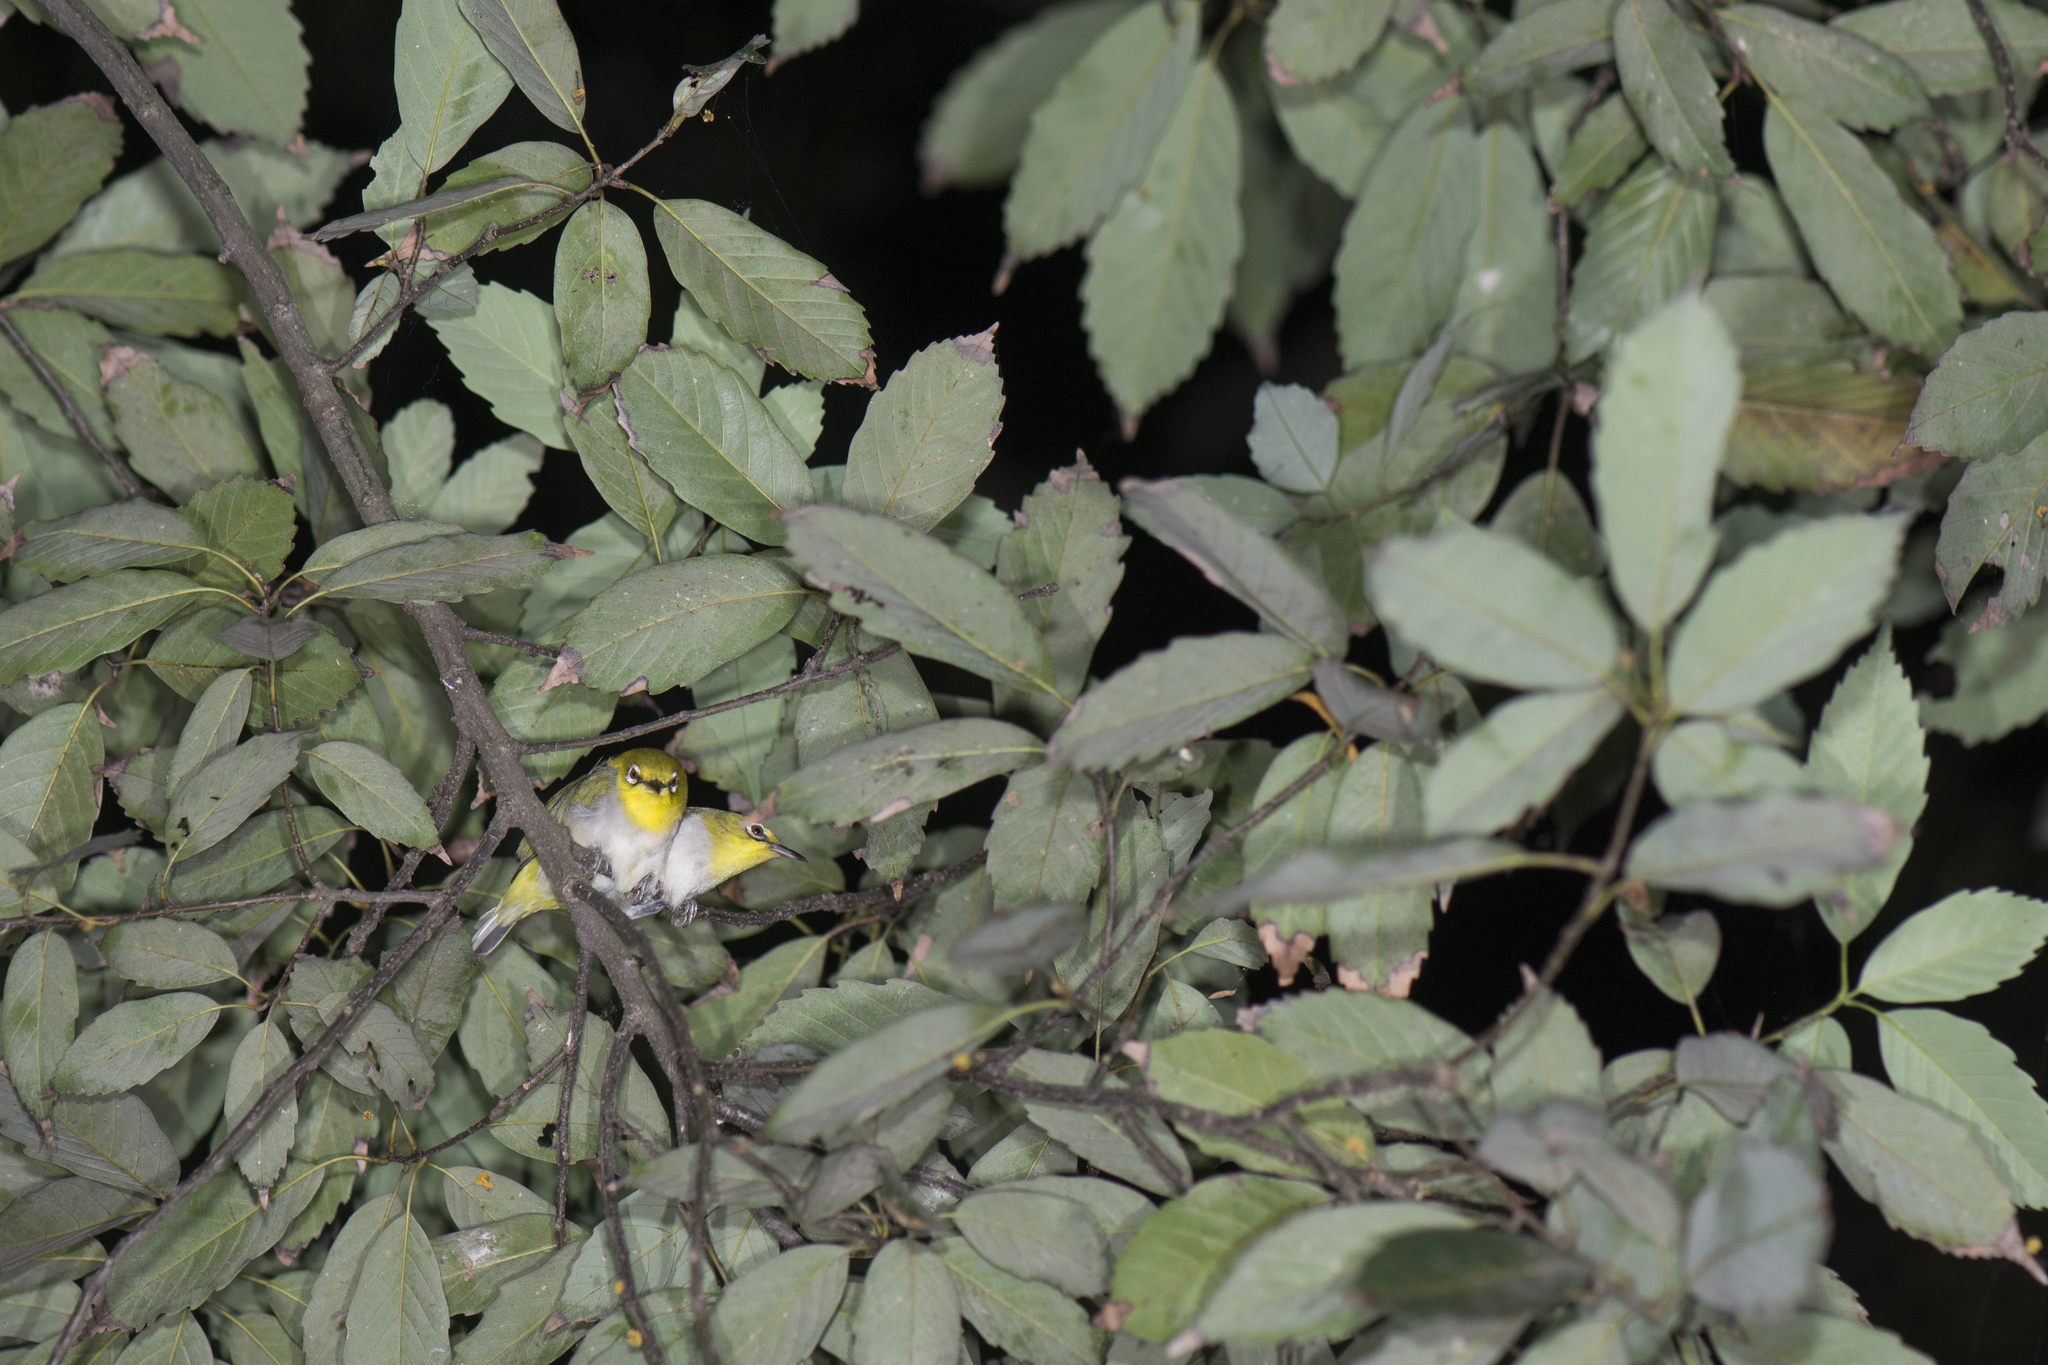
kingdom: Animalia
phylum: Chordata
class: Aves
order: Passeriformes
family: Zosteropidae
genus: Zosterops
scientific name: Zosterops simplex
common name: Swinhoe's white-eye
